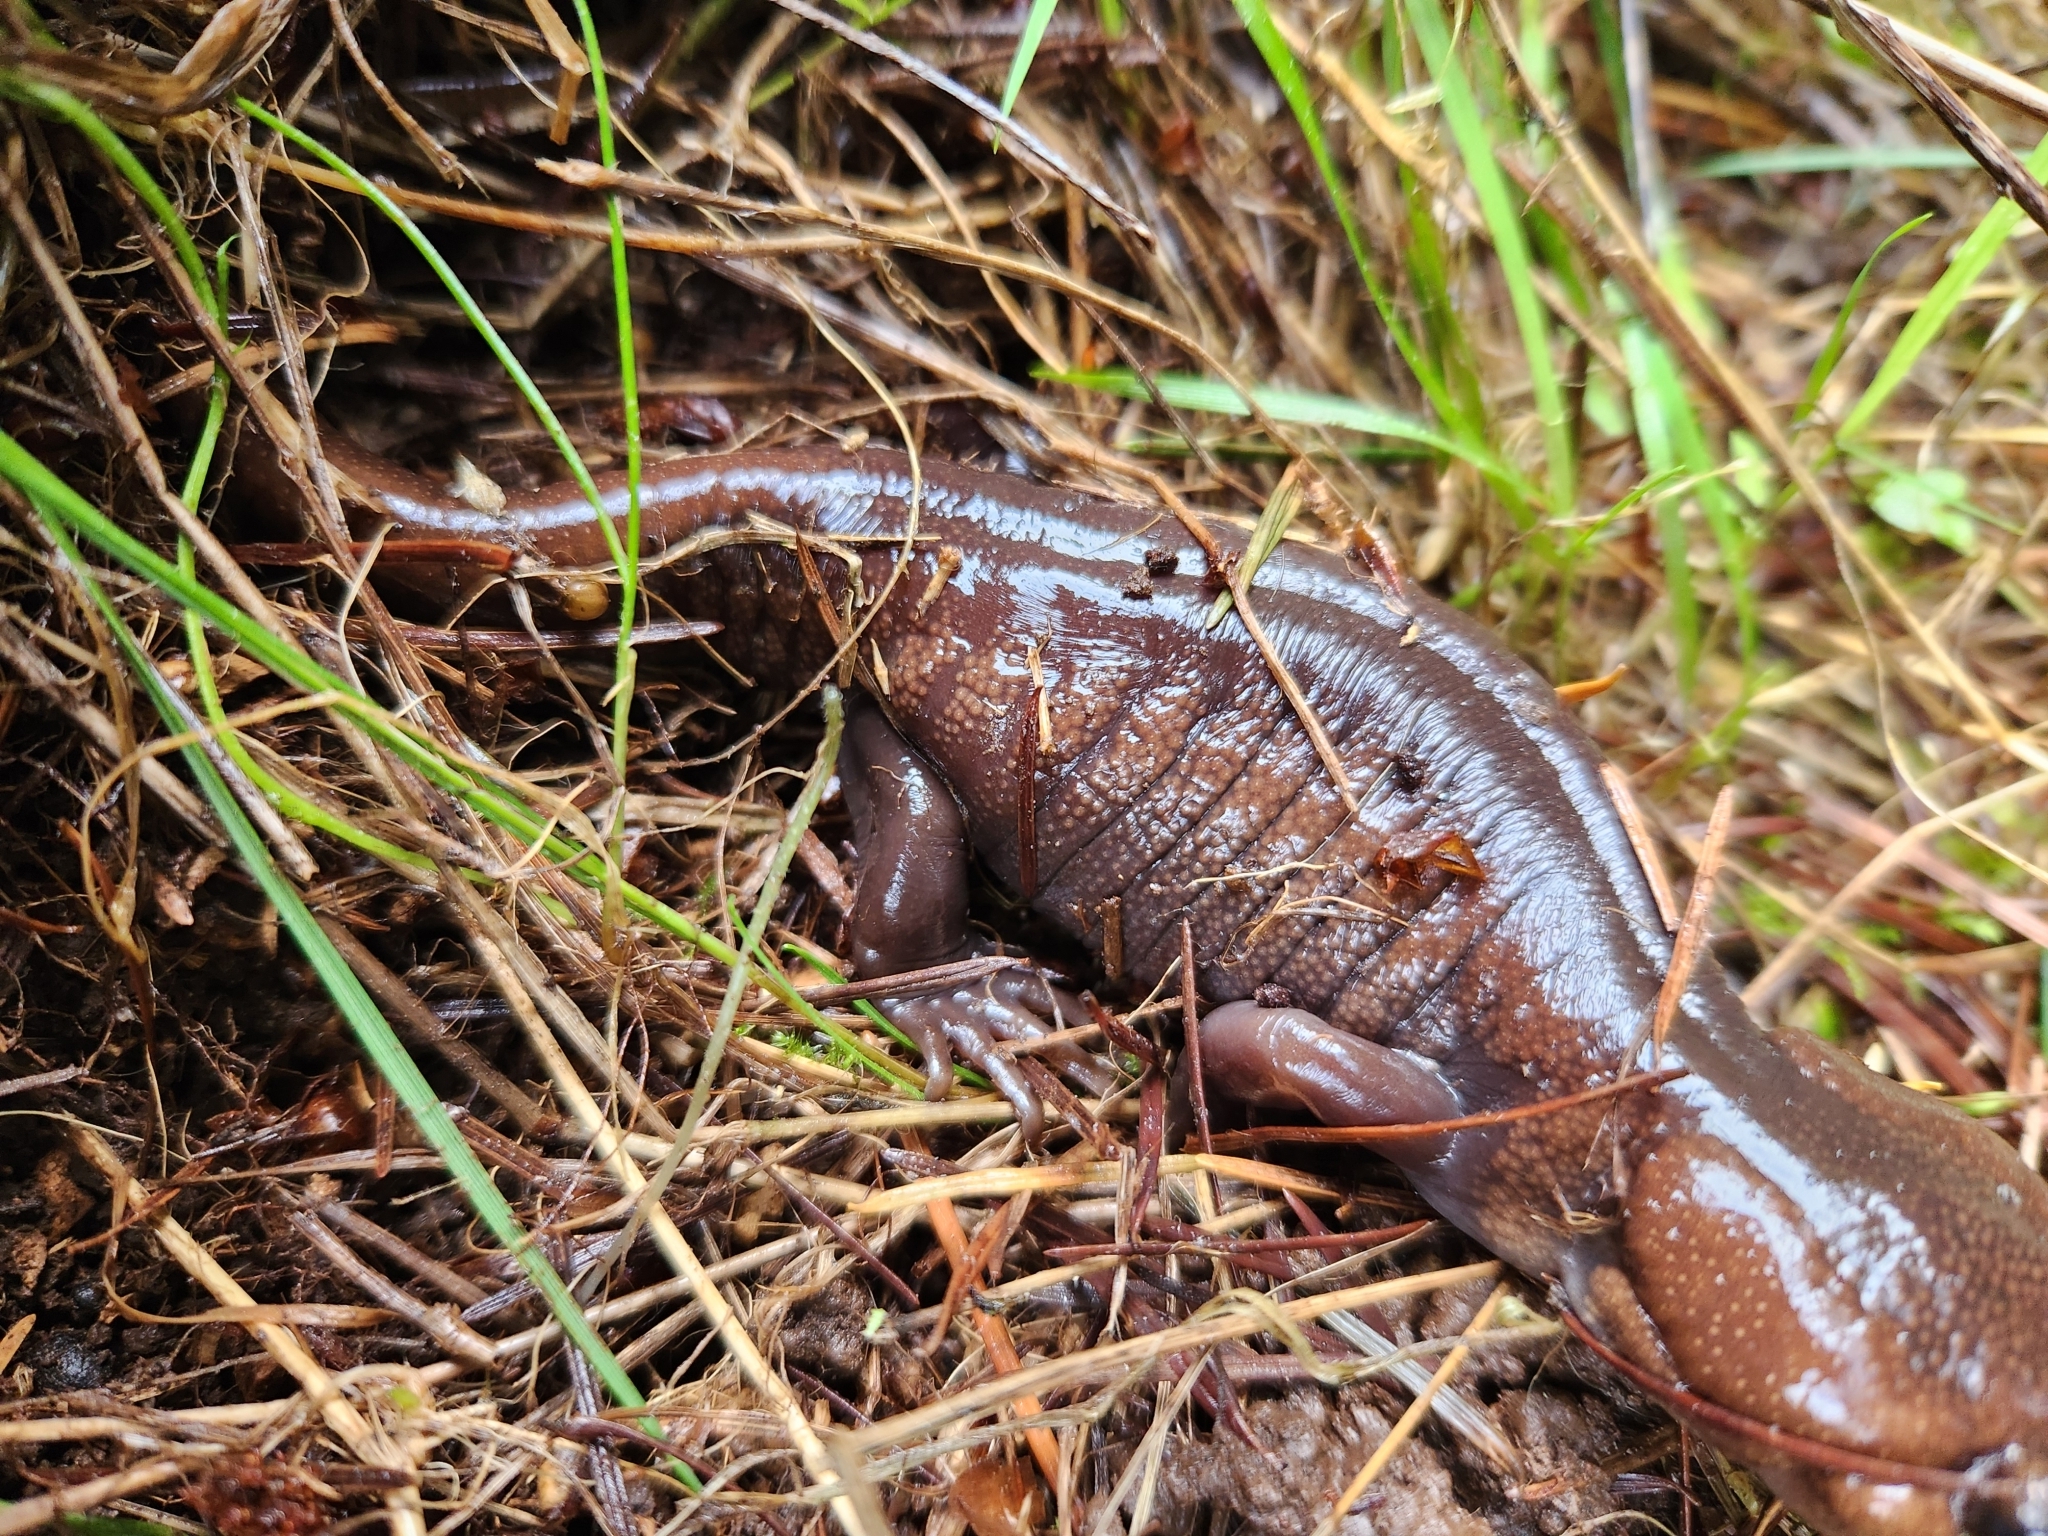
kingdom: Animalia
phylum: Chordata
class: Amphibia
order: Caudata
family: Ambystomatidae
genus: Ambystoma
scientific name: Ambystoma gracile
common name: Northwestern salamander
